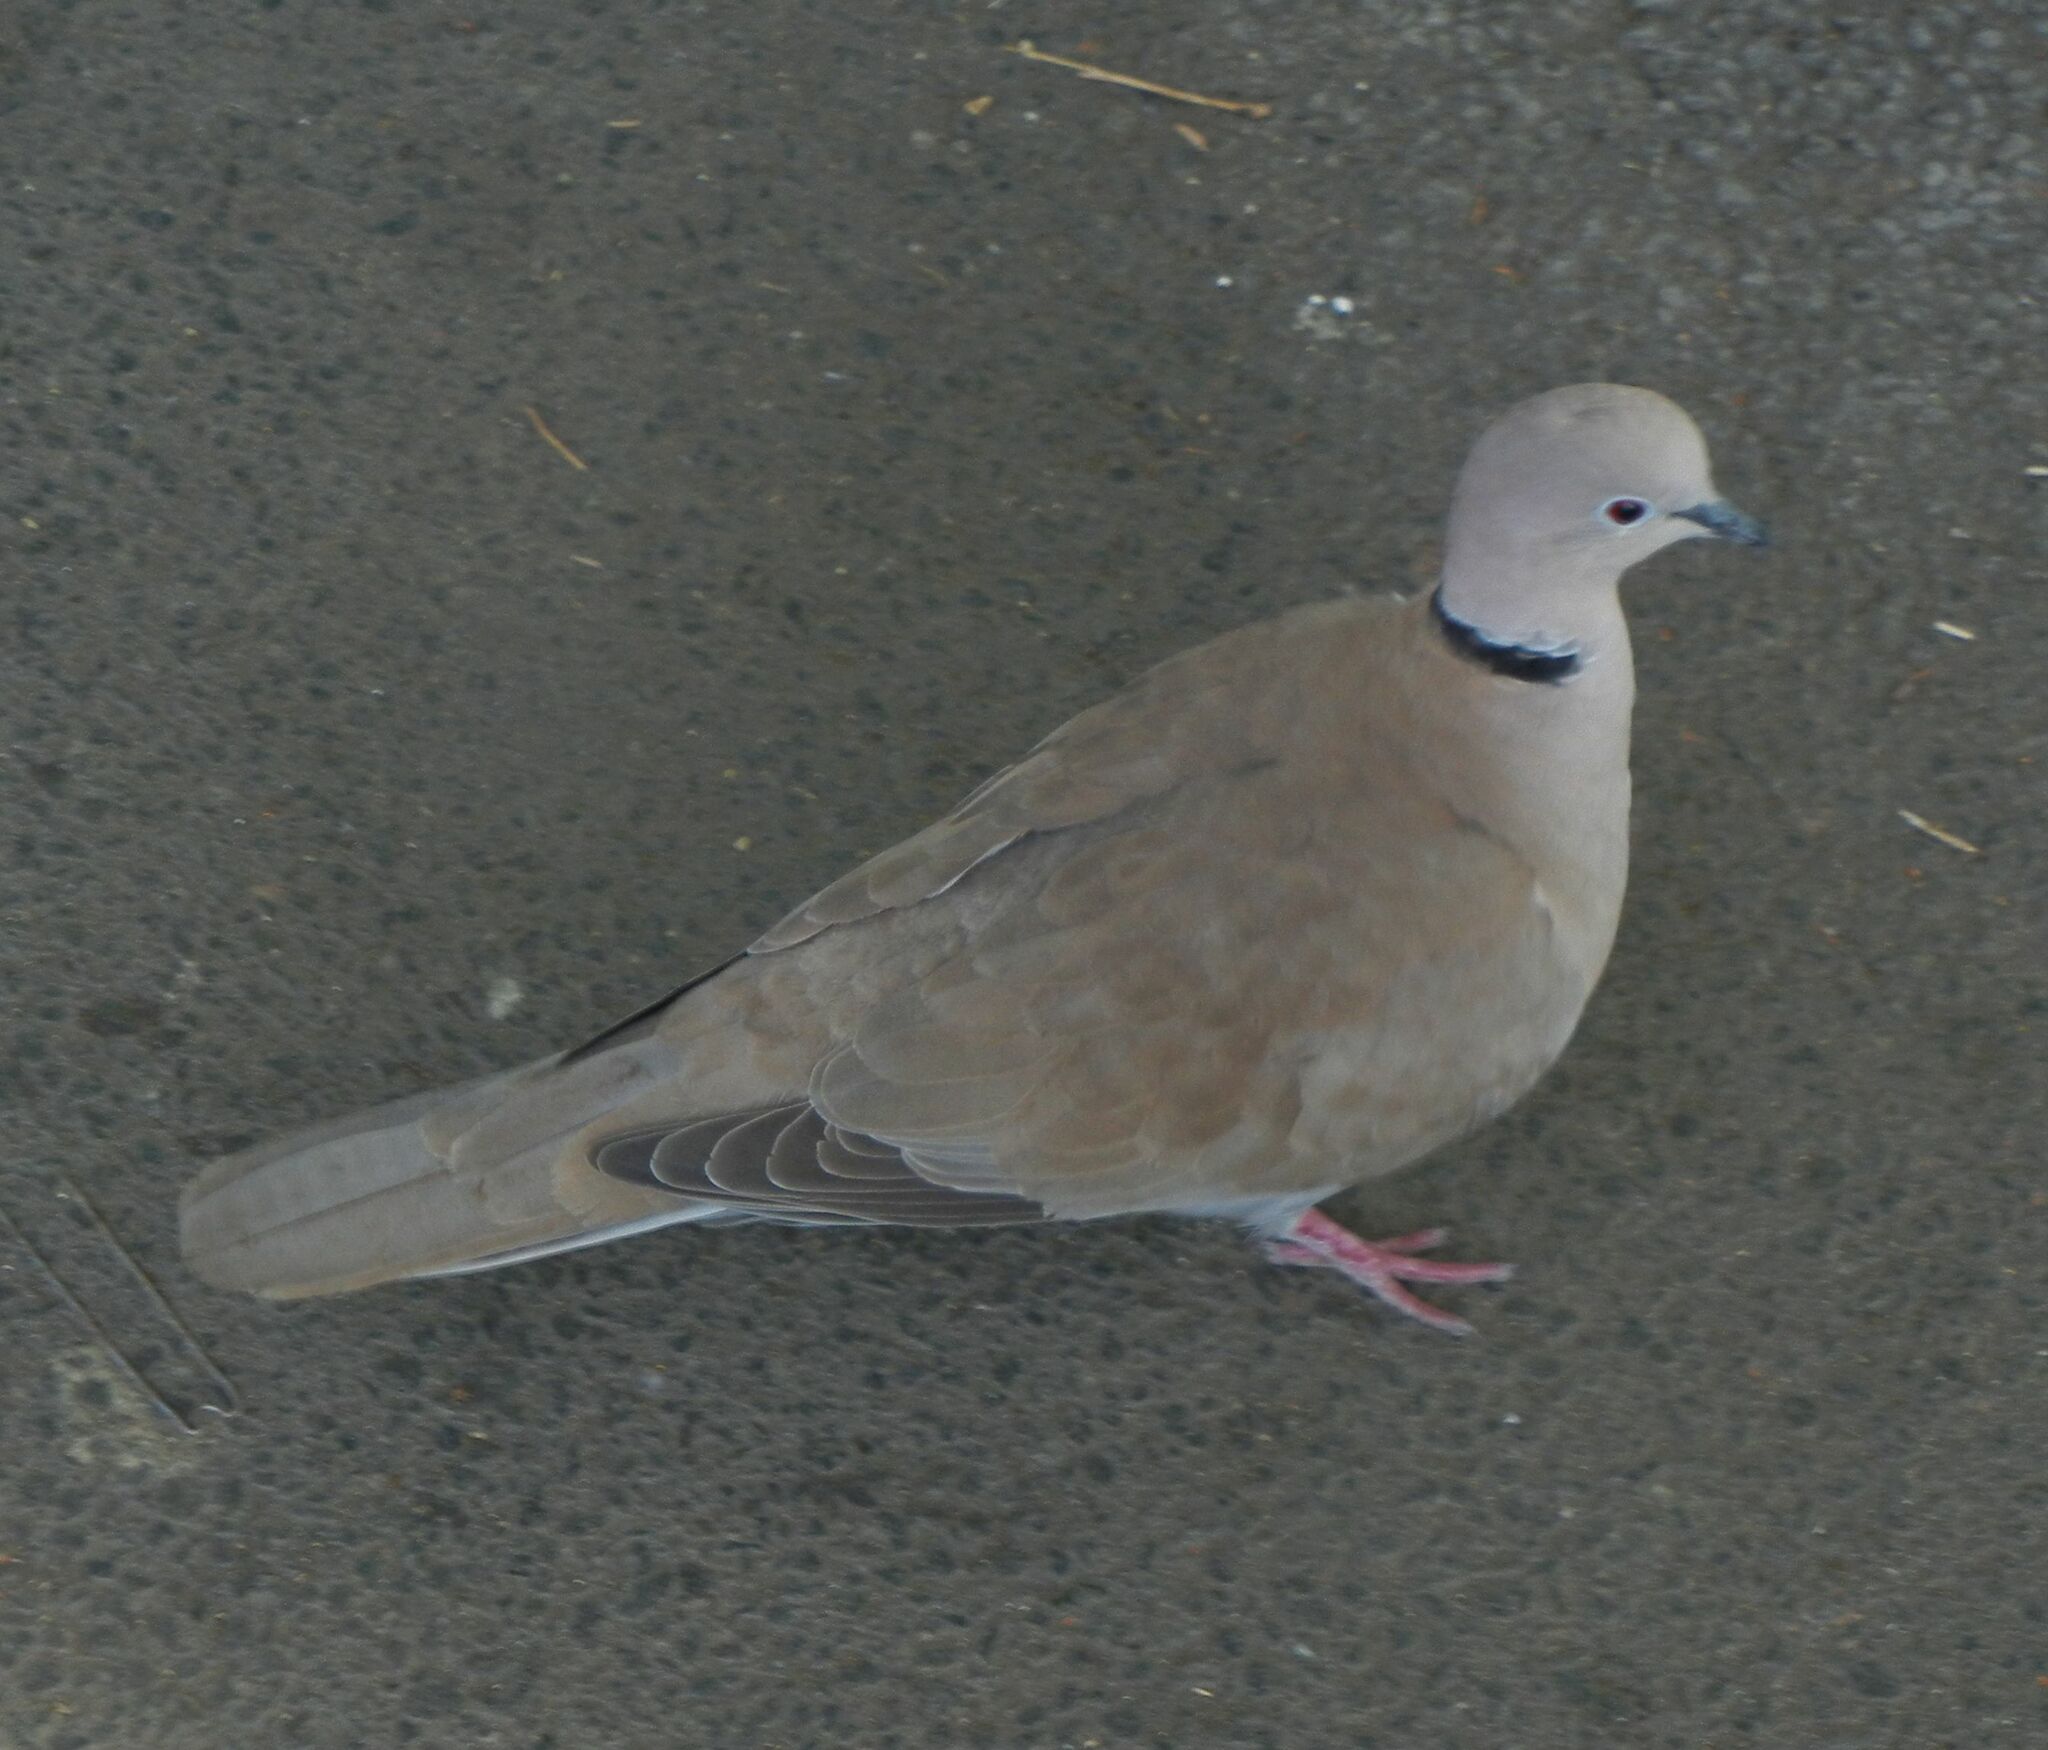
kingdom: Animalia
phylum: Chordata
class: Aves
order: Columbiformes
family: Columbidae
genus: Streptopelia
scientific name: Streptopelia decaocto
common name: Eurasian collared dove
